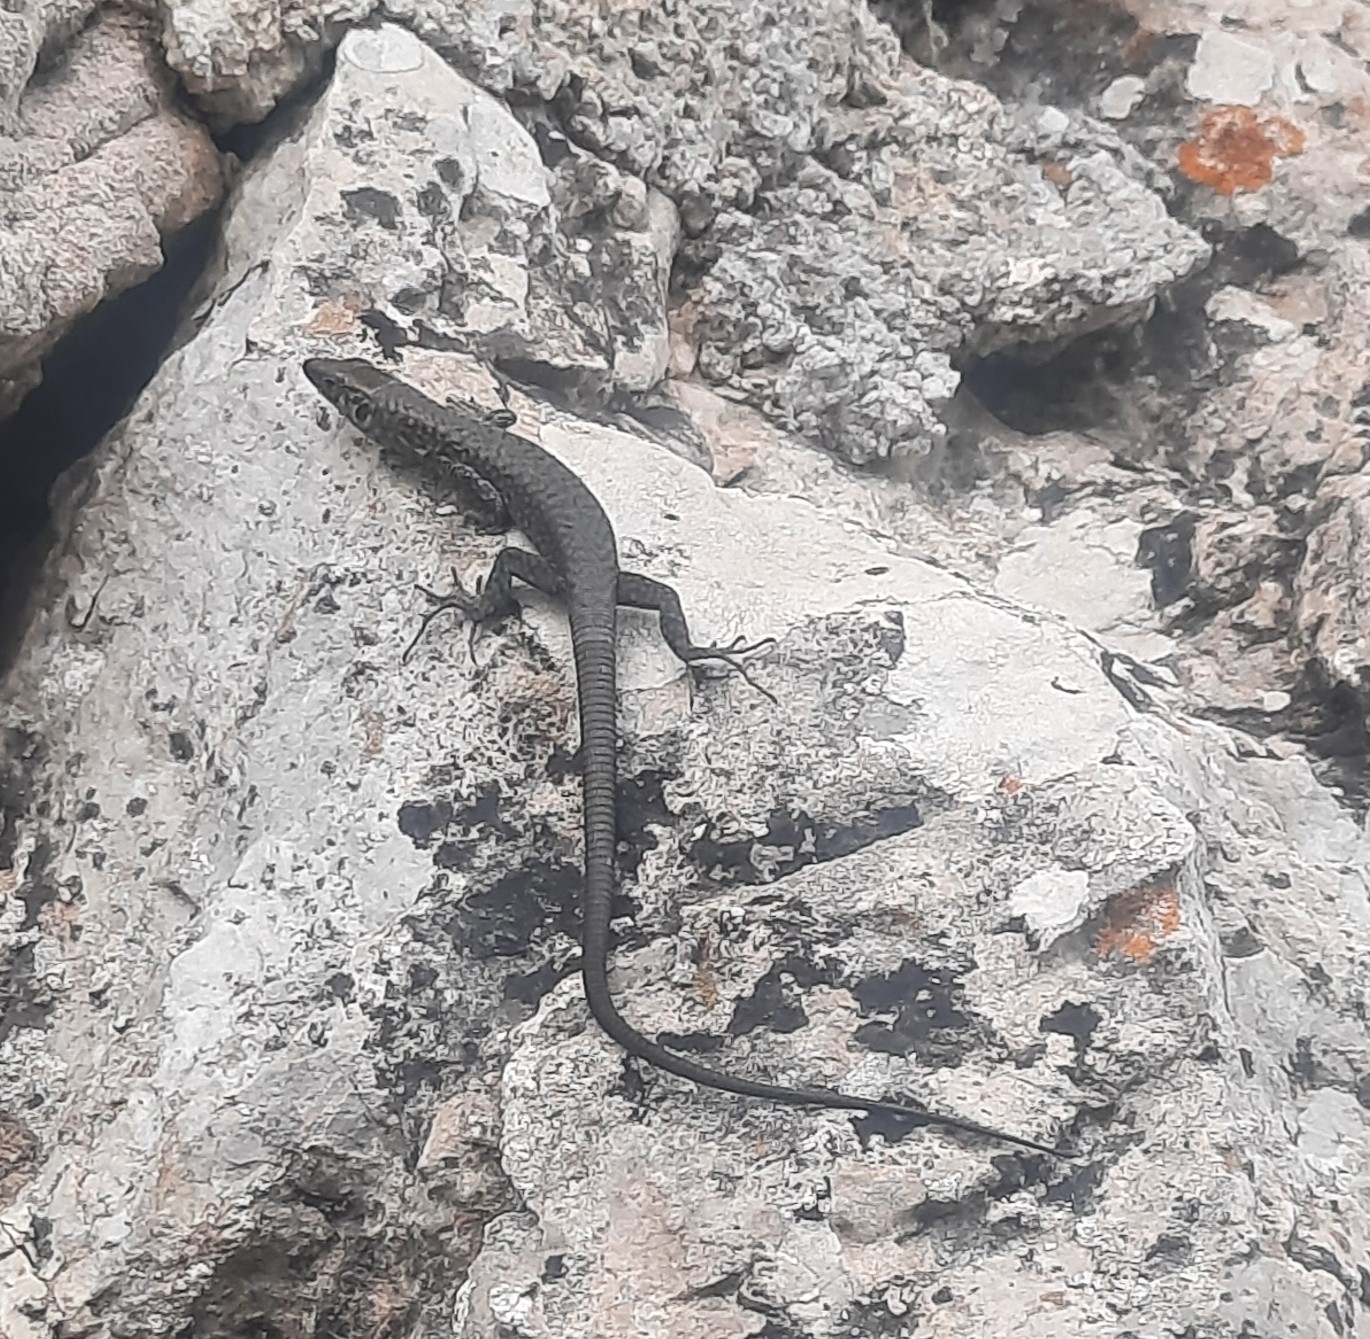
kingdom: Animalia
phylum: Chordata
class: Squamata
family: Lacertidae
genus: Hellenolacerta
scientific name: Hellenolacerta graeca
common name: Greek rock lizard
